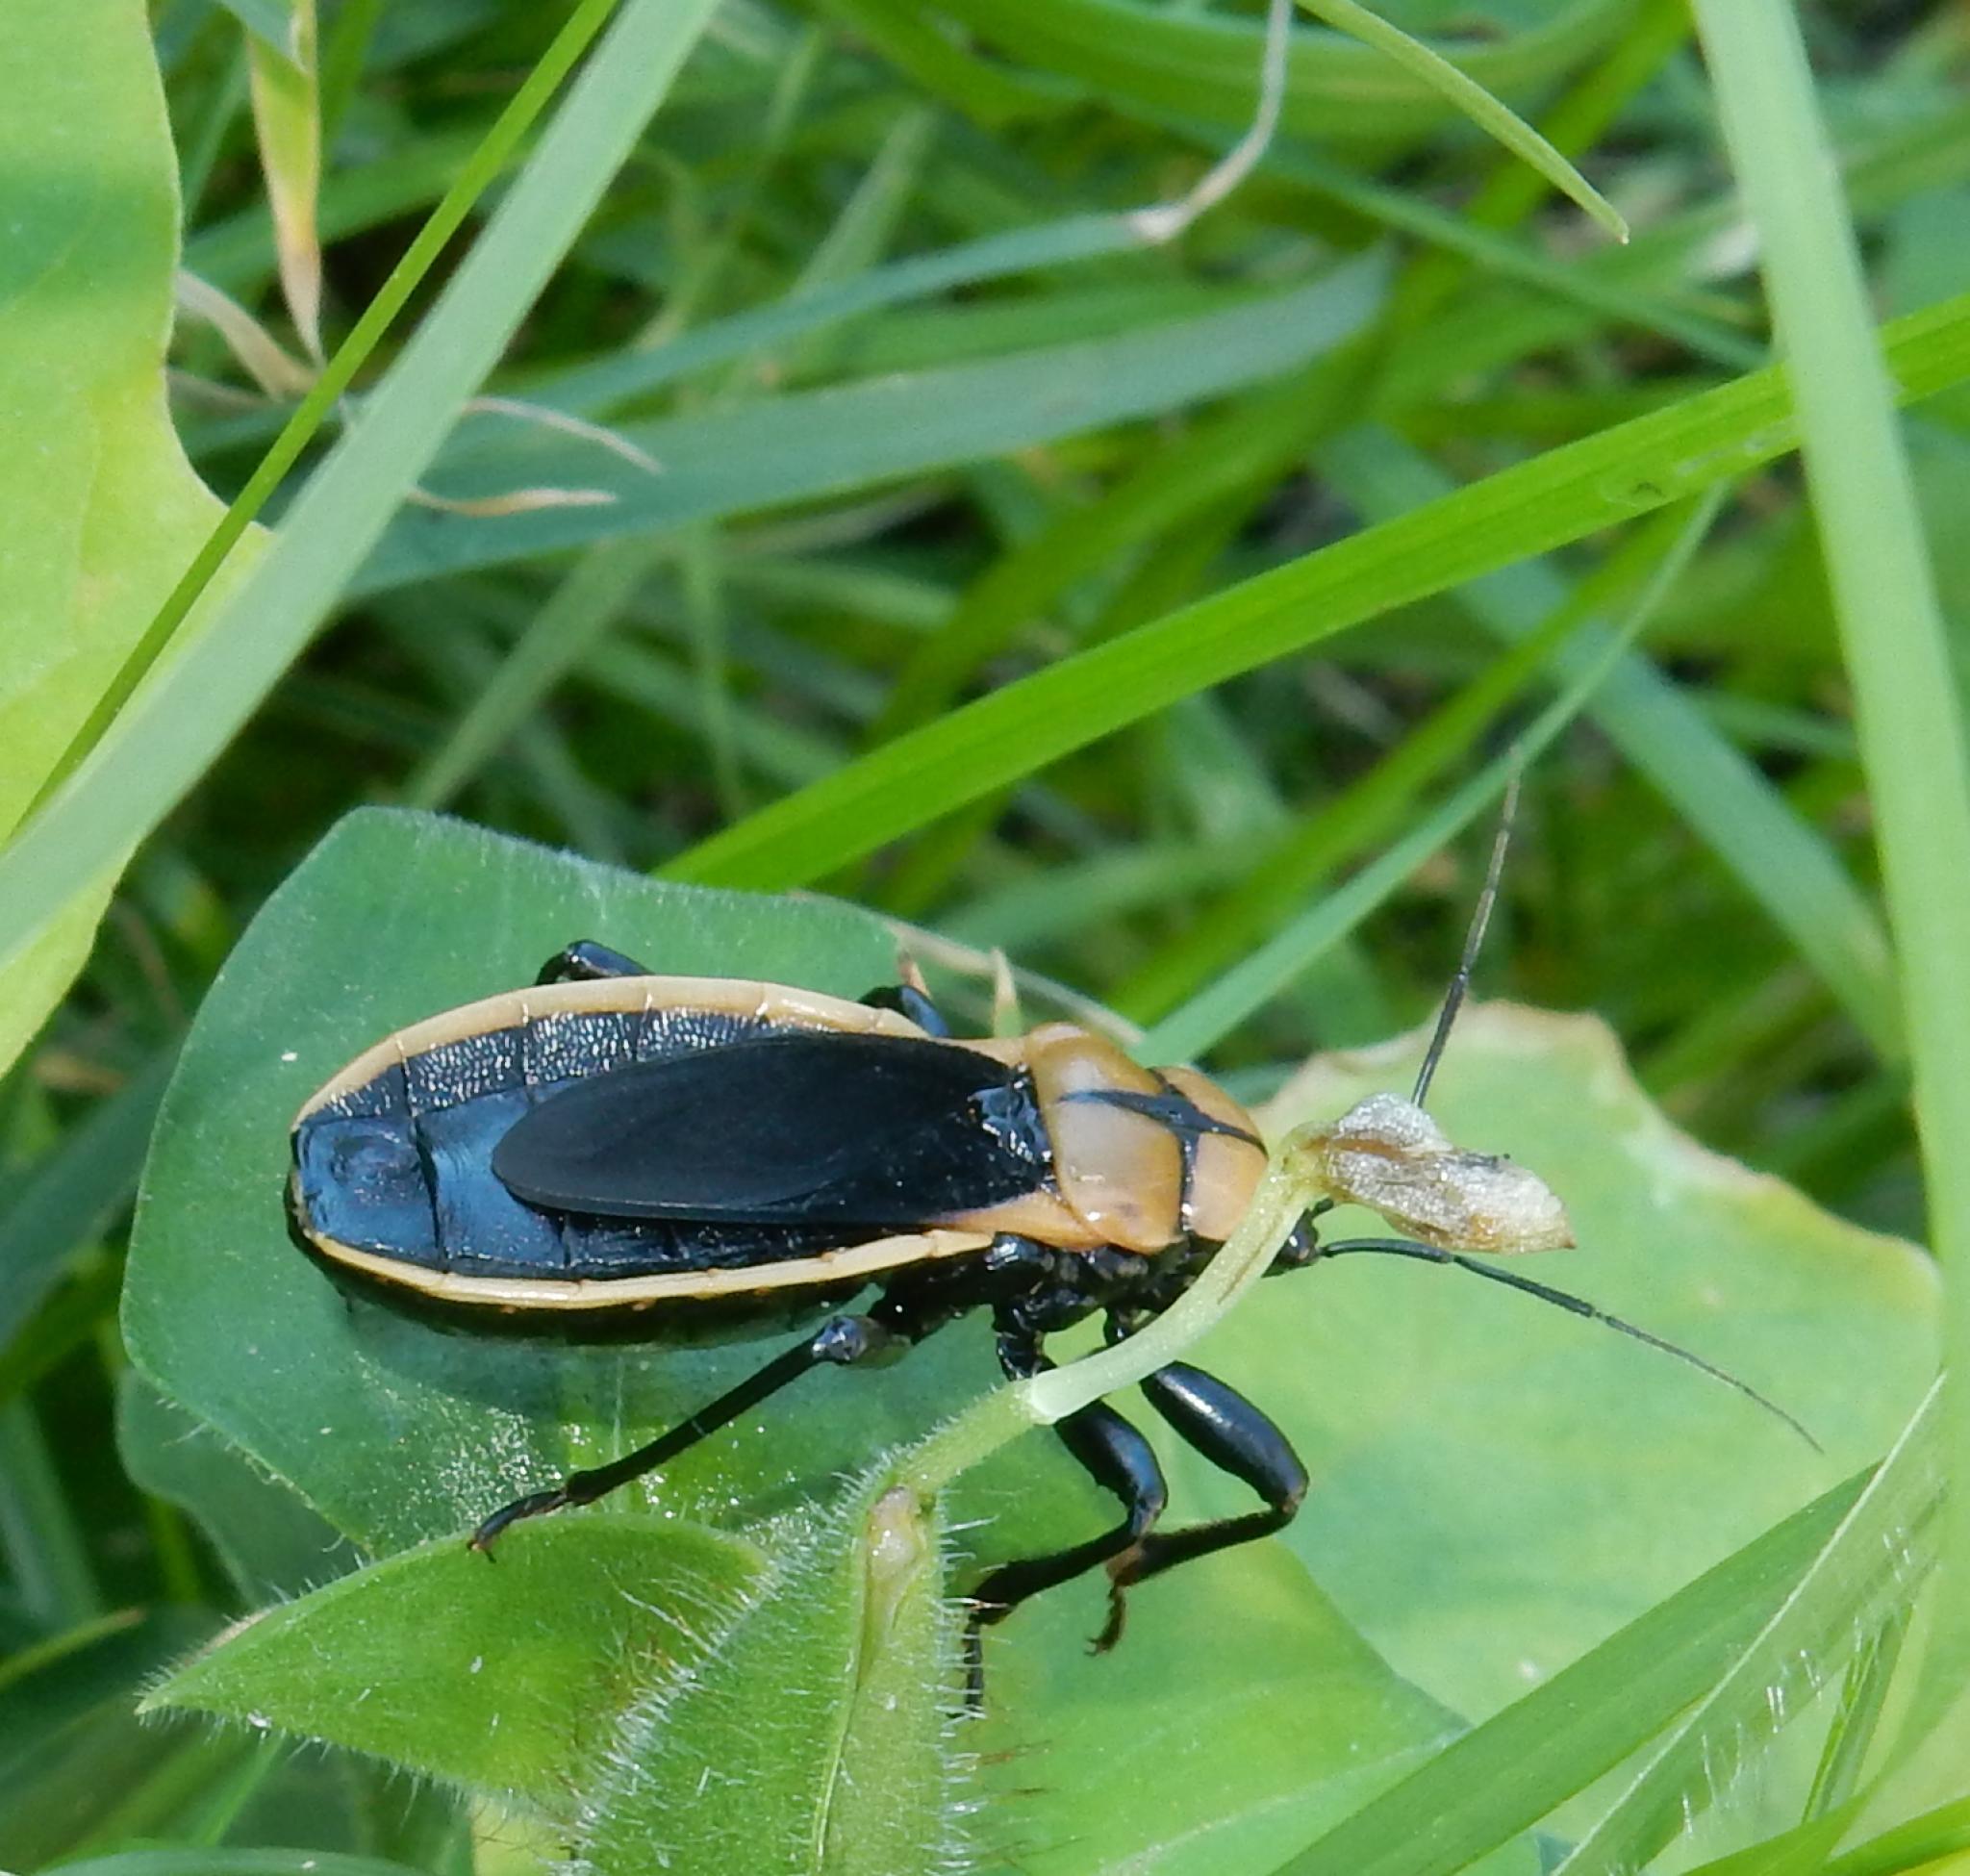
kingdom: Animalia
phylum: Arthropoda
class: Insecta
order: Hemiptera
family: Reduviidae
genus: Ectrichodia
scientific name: Ectrichodia crux
